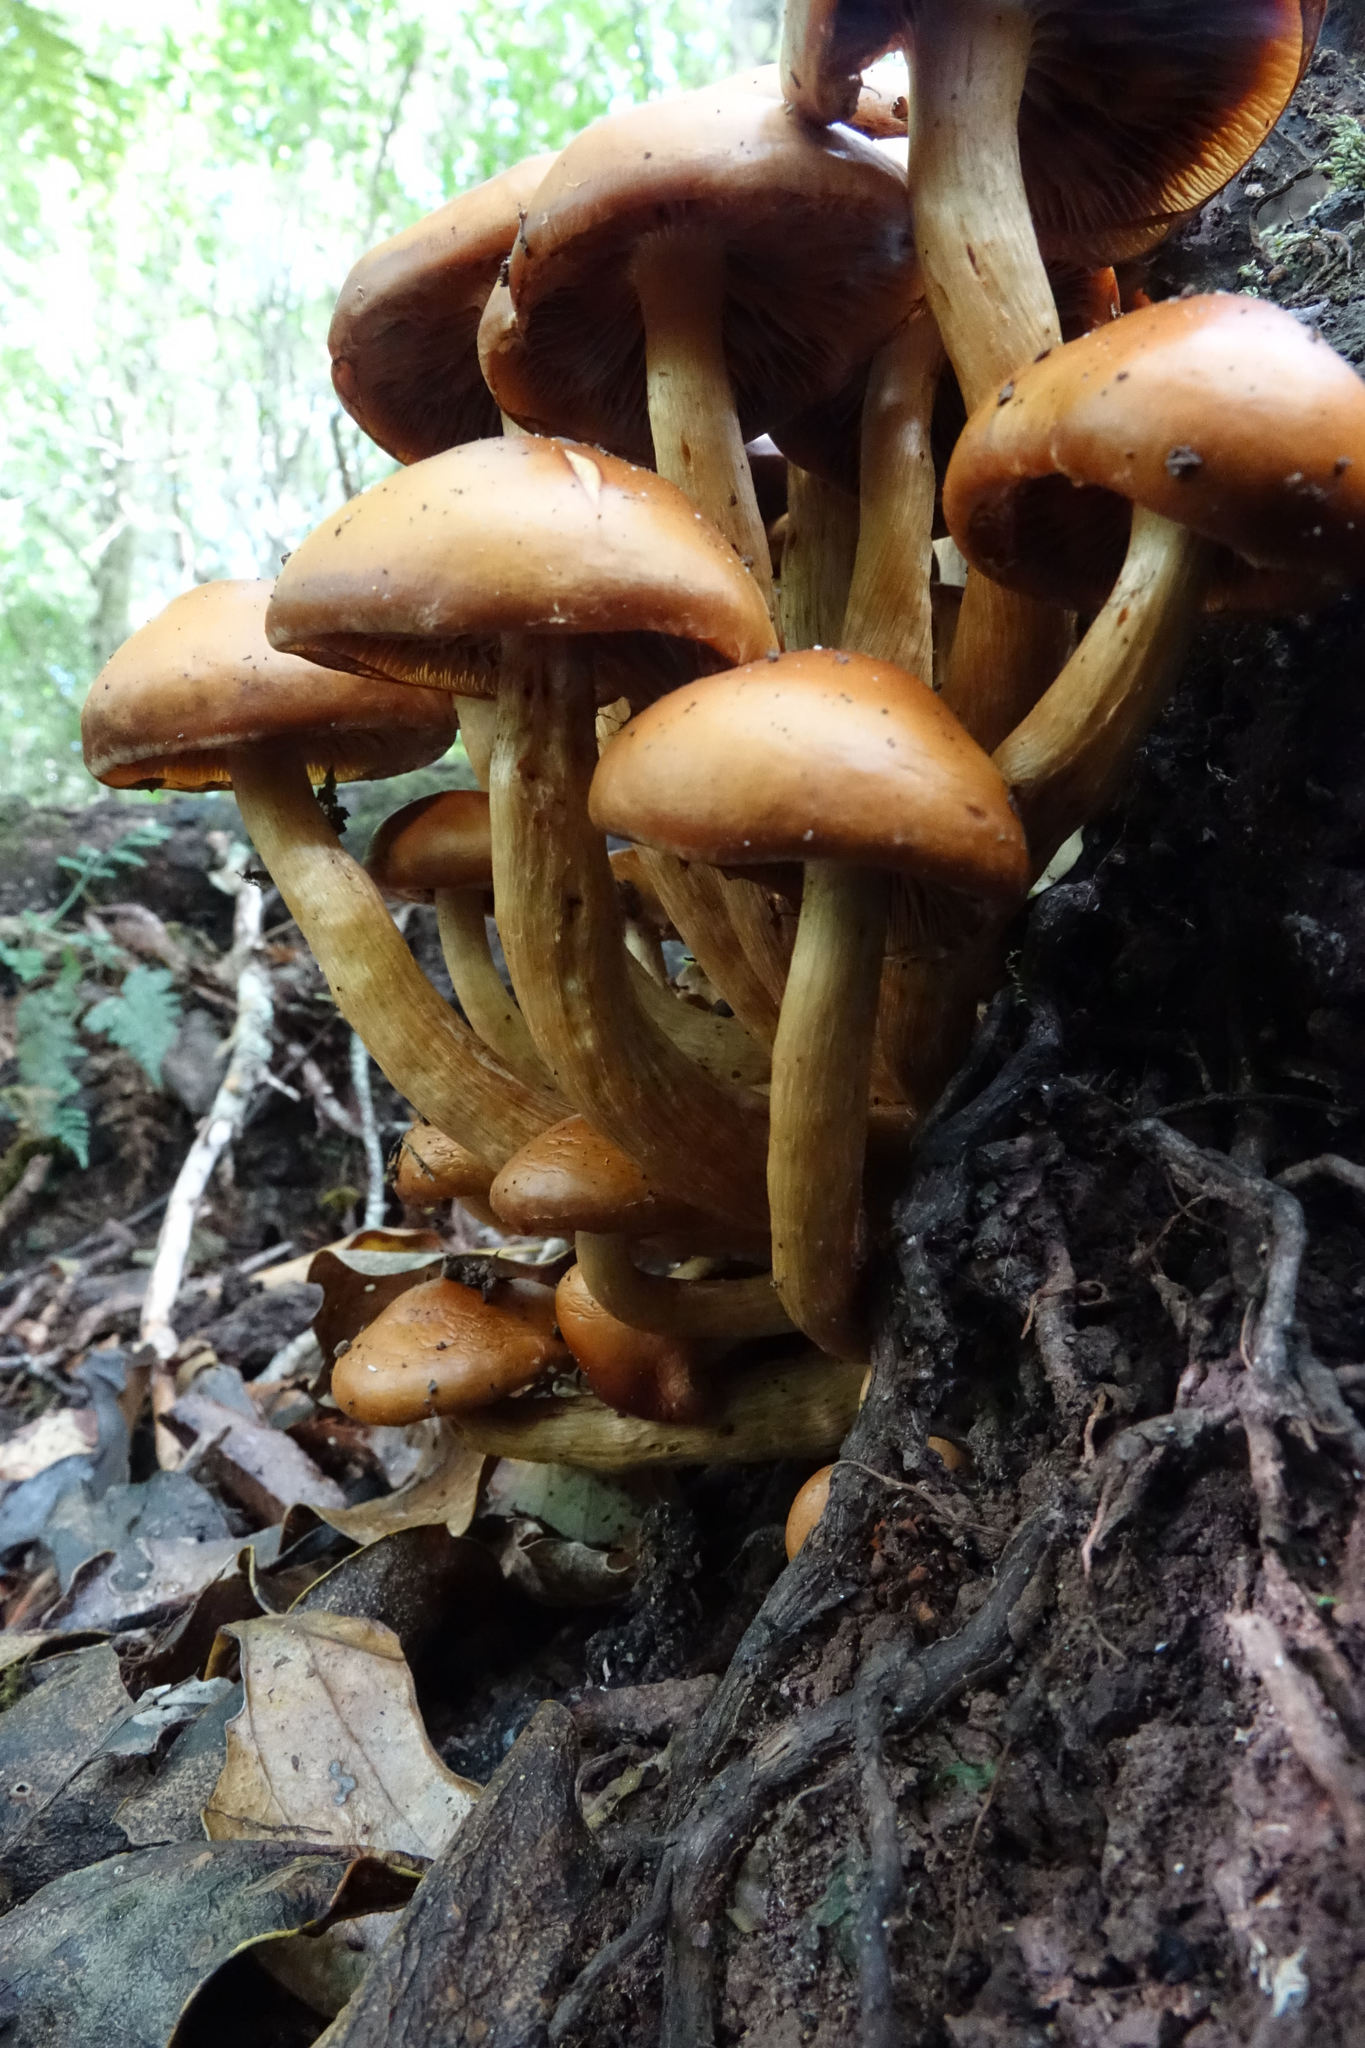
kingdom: Fungi
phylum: Basidiomycota
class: Agaricomycetes
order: Agaricales
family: Hymenogastraceae
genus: Gymnopilus
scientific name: Gymnopilus junonius
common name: Spectacular rustgill
